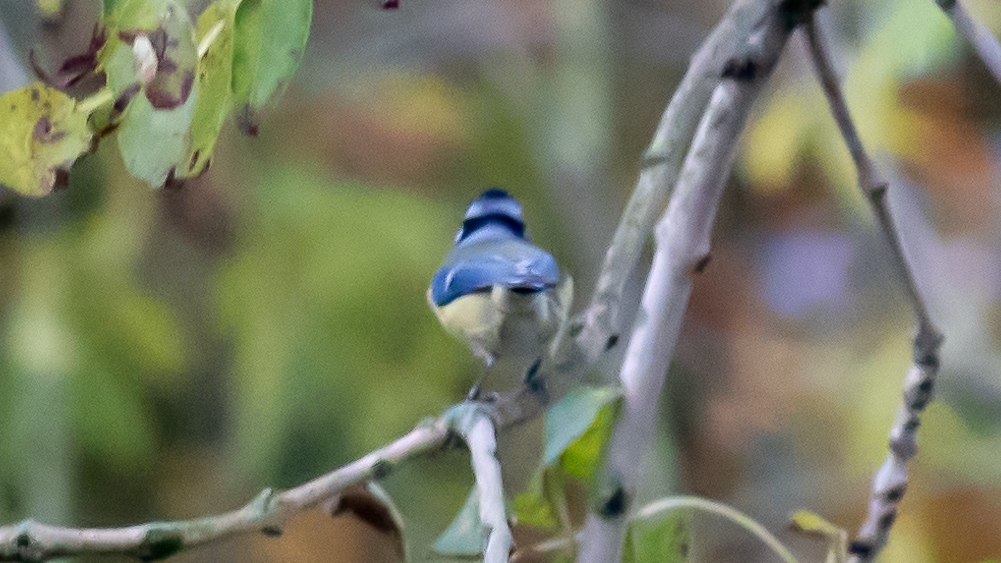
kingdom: Animalia
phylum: Chordata
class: Aves
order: Passeriformes
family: Paridae
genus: Cyanistes
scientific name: Cyanistes caeruleus
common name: Eurasian blue tit
